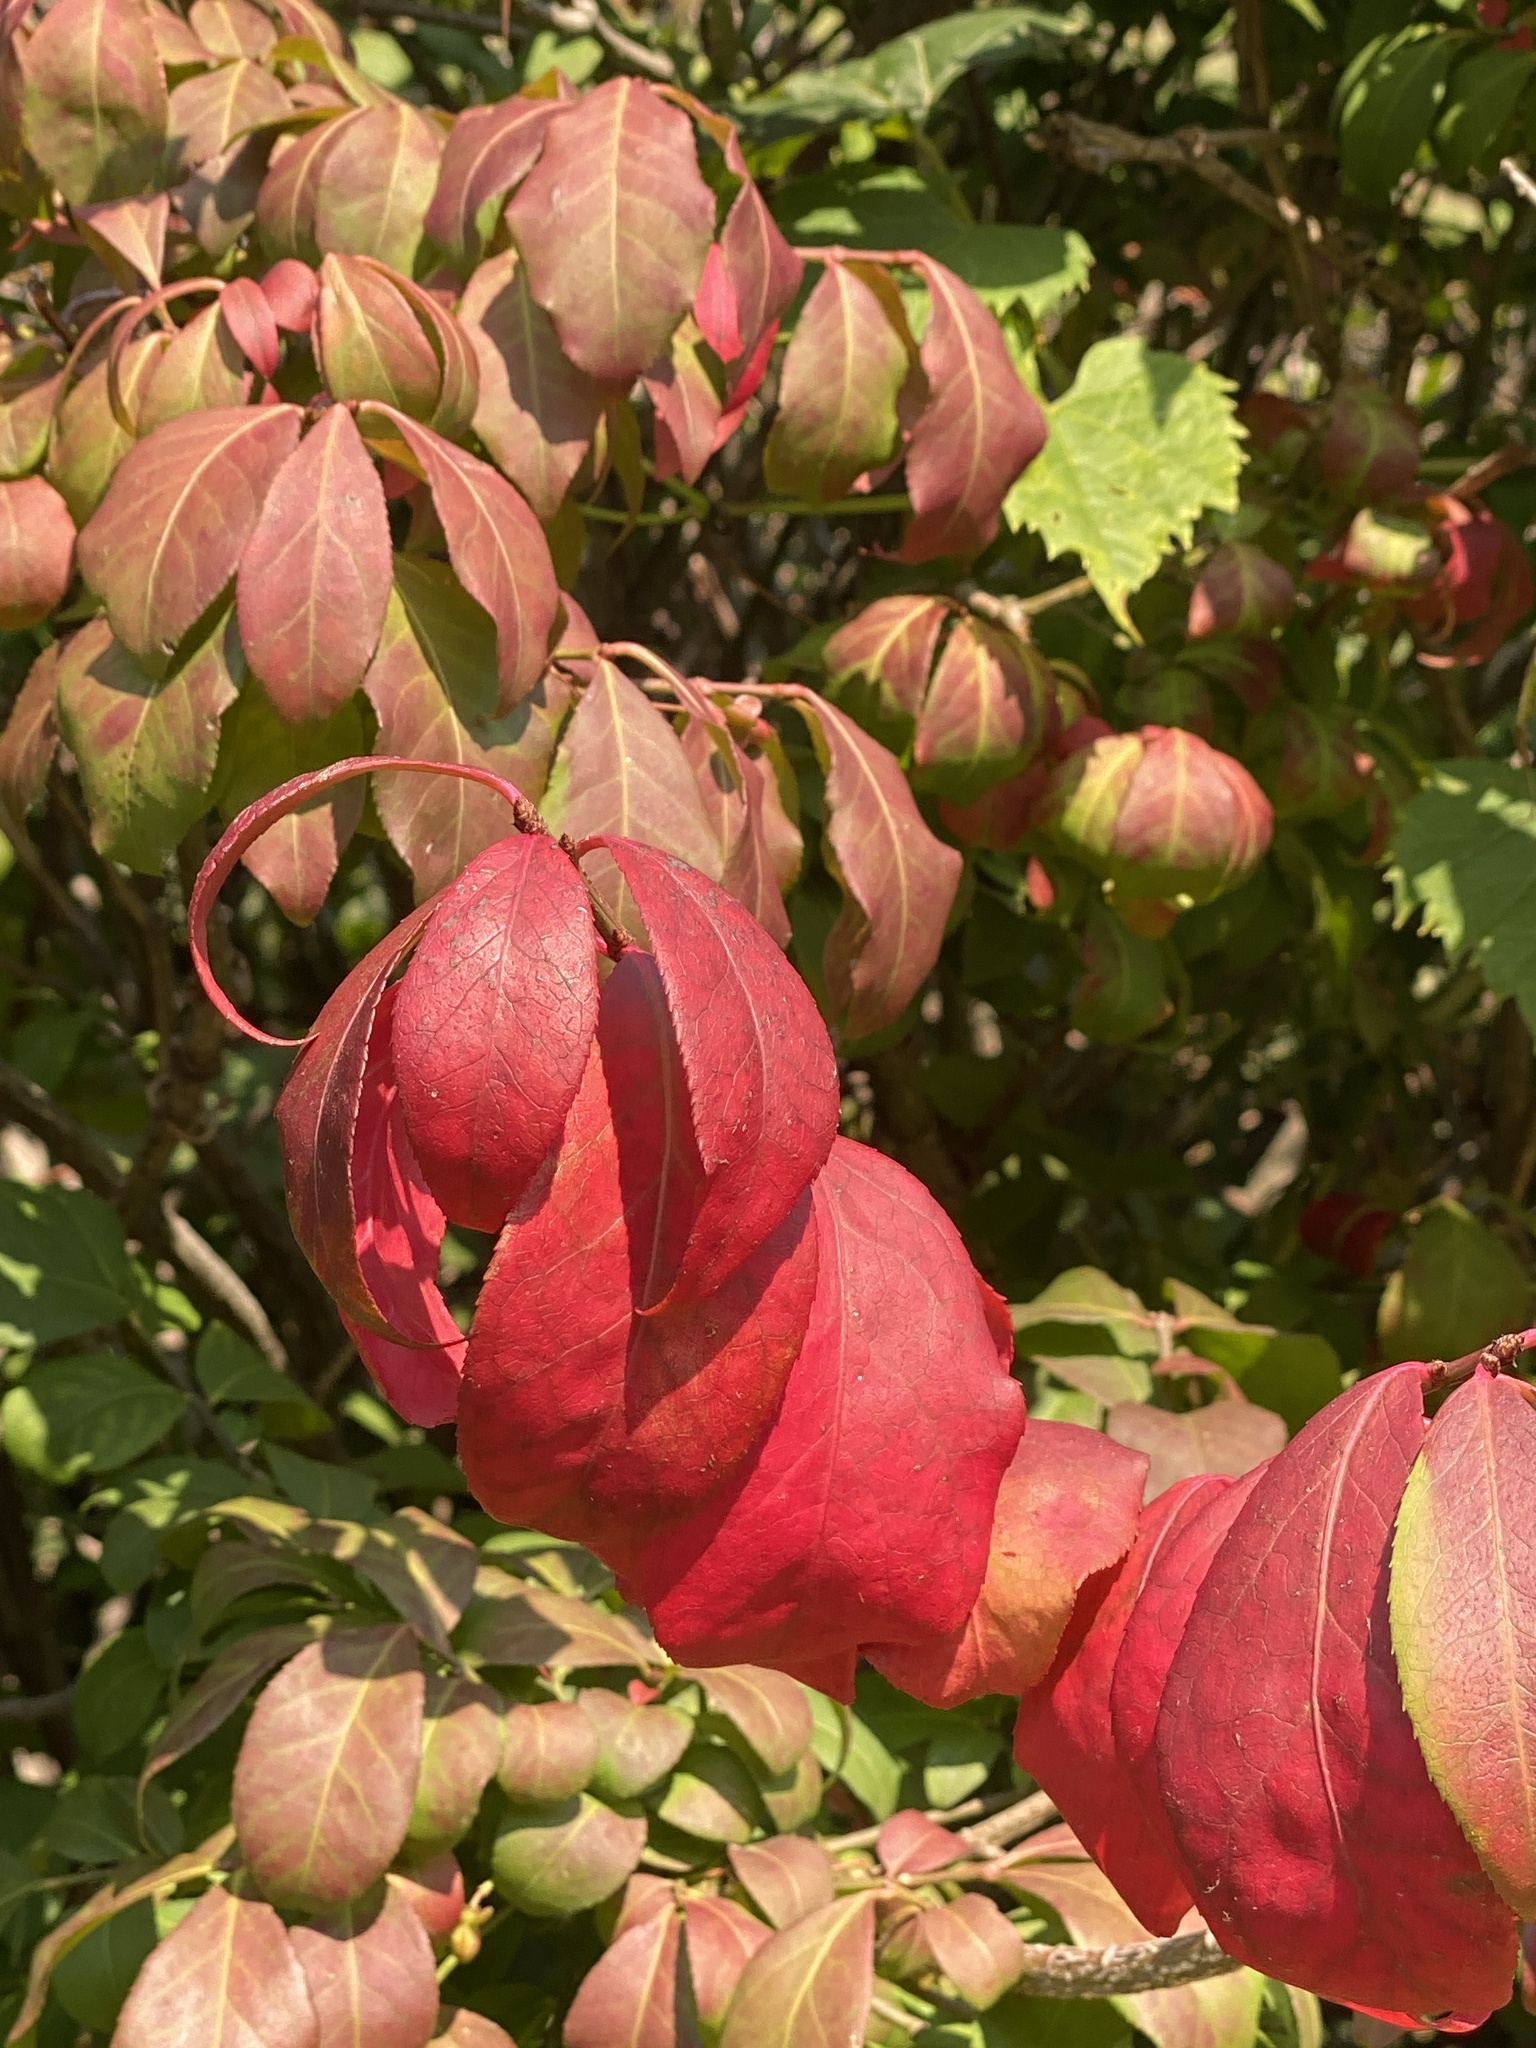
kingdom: Plantae
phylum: Tracheophyta
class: Magnoliopsida
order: Celastrales
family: Celastraceae
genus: Euonymus
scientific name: Euonymus alatus
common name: Winged euonymus
